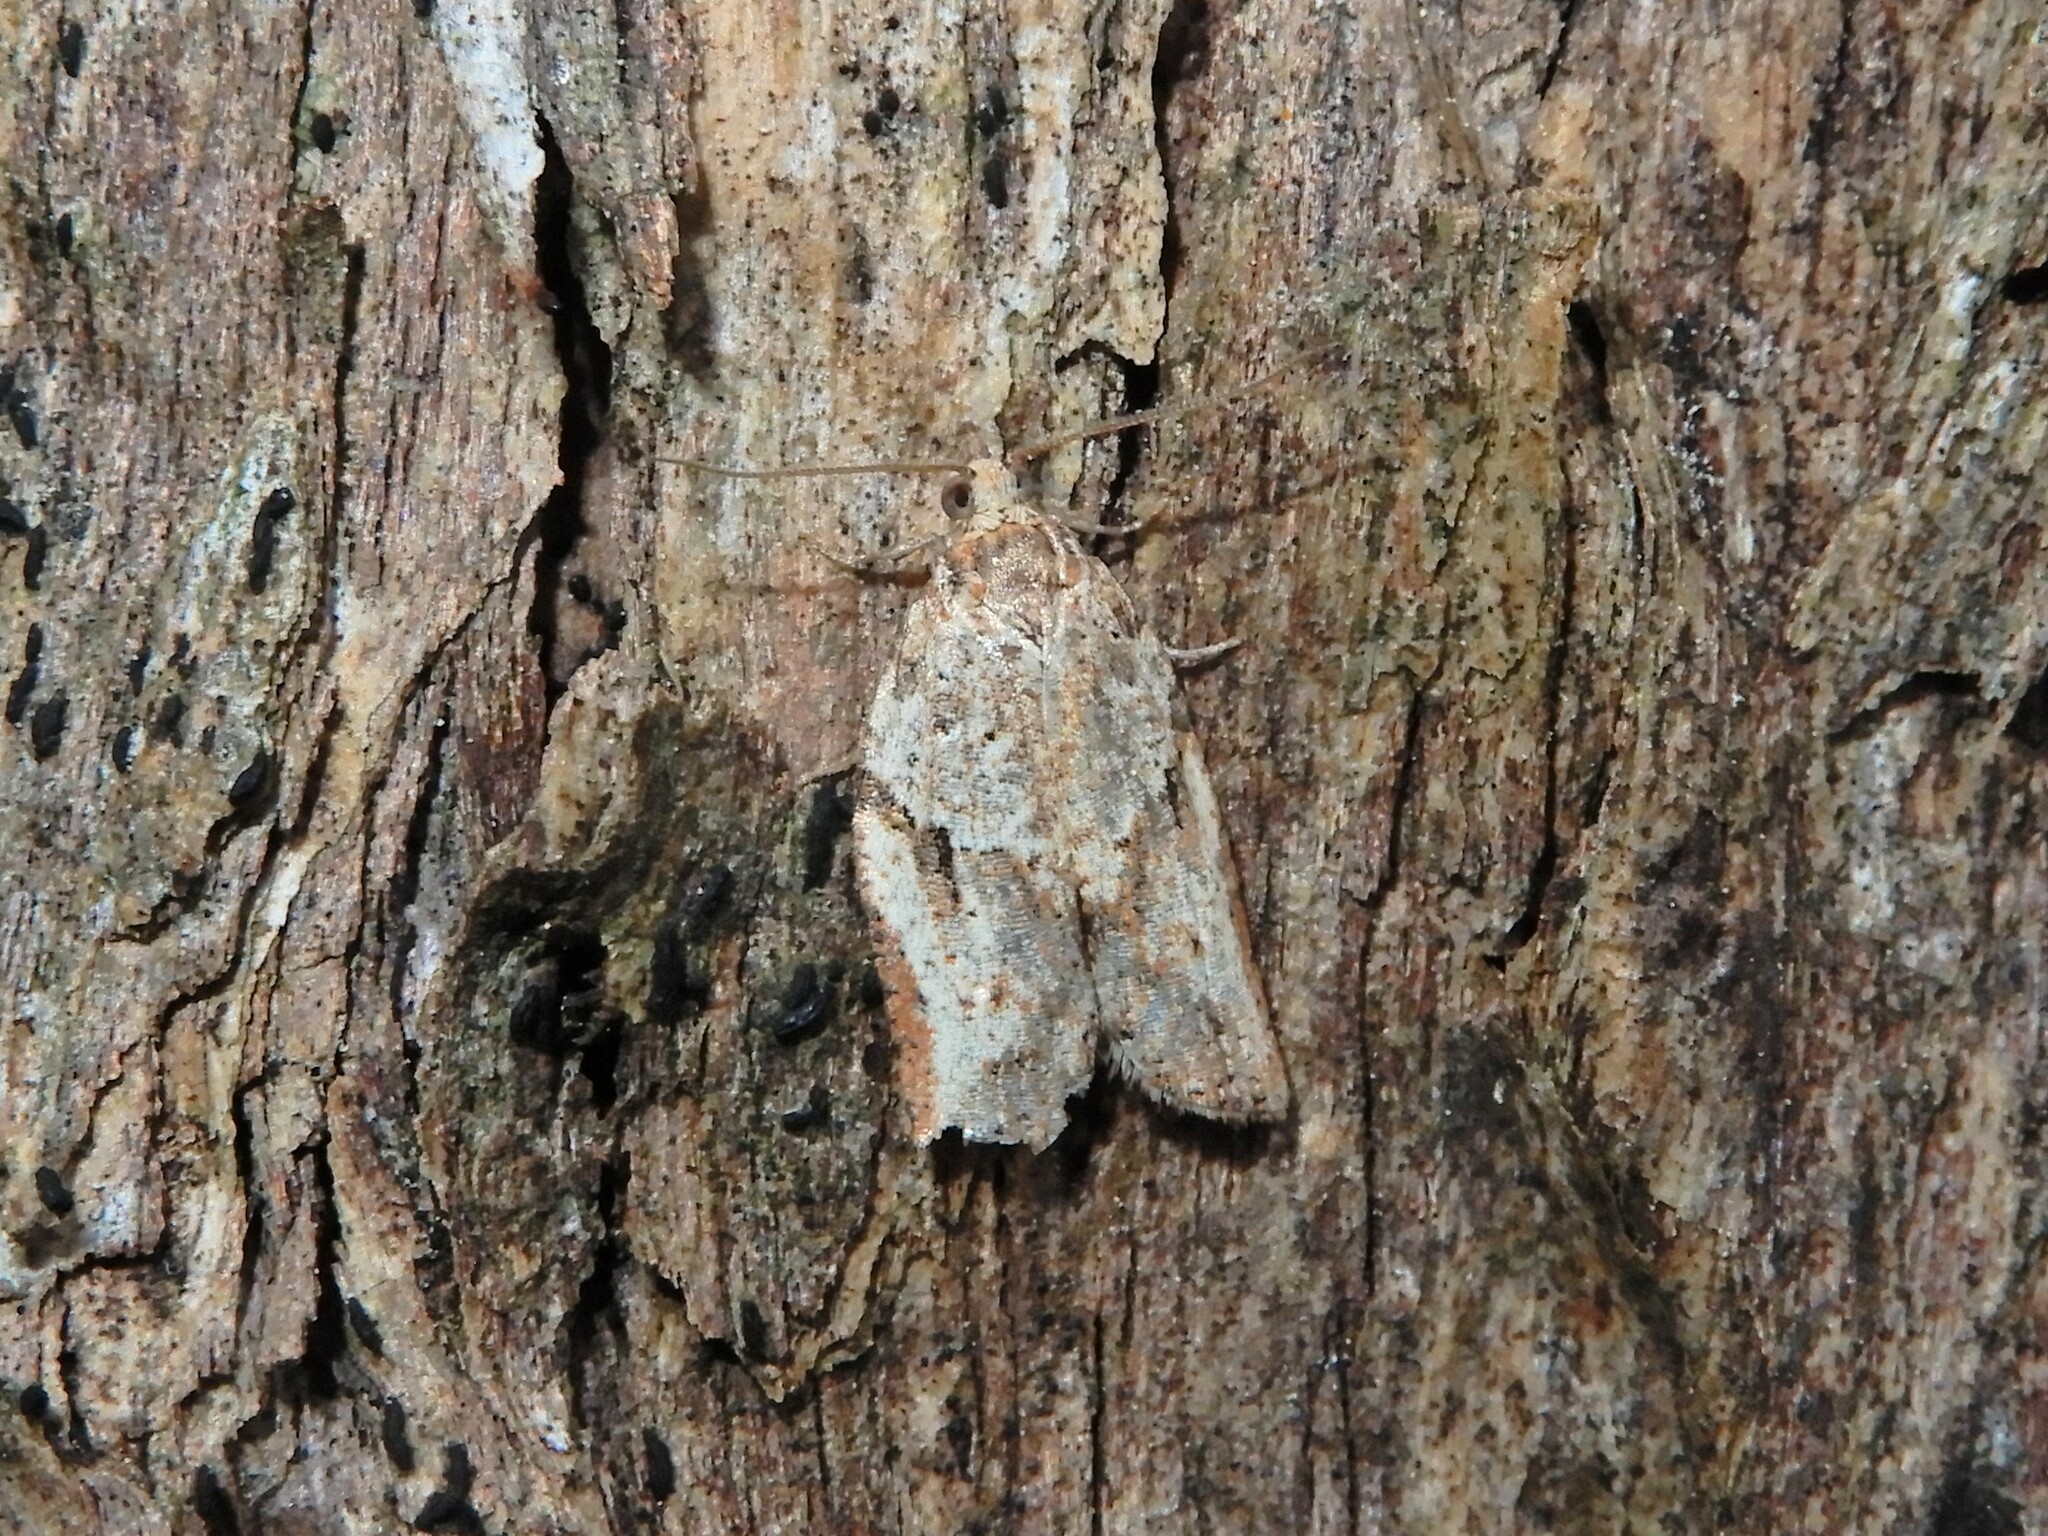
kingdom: Animalia
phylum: Arthropoda
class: Insecta
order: Lepidoptera
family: Tortricidae
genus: Epiphyas
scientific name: Epiphyas postvittana
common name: Light brown apple moth
